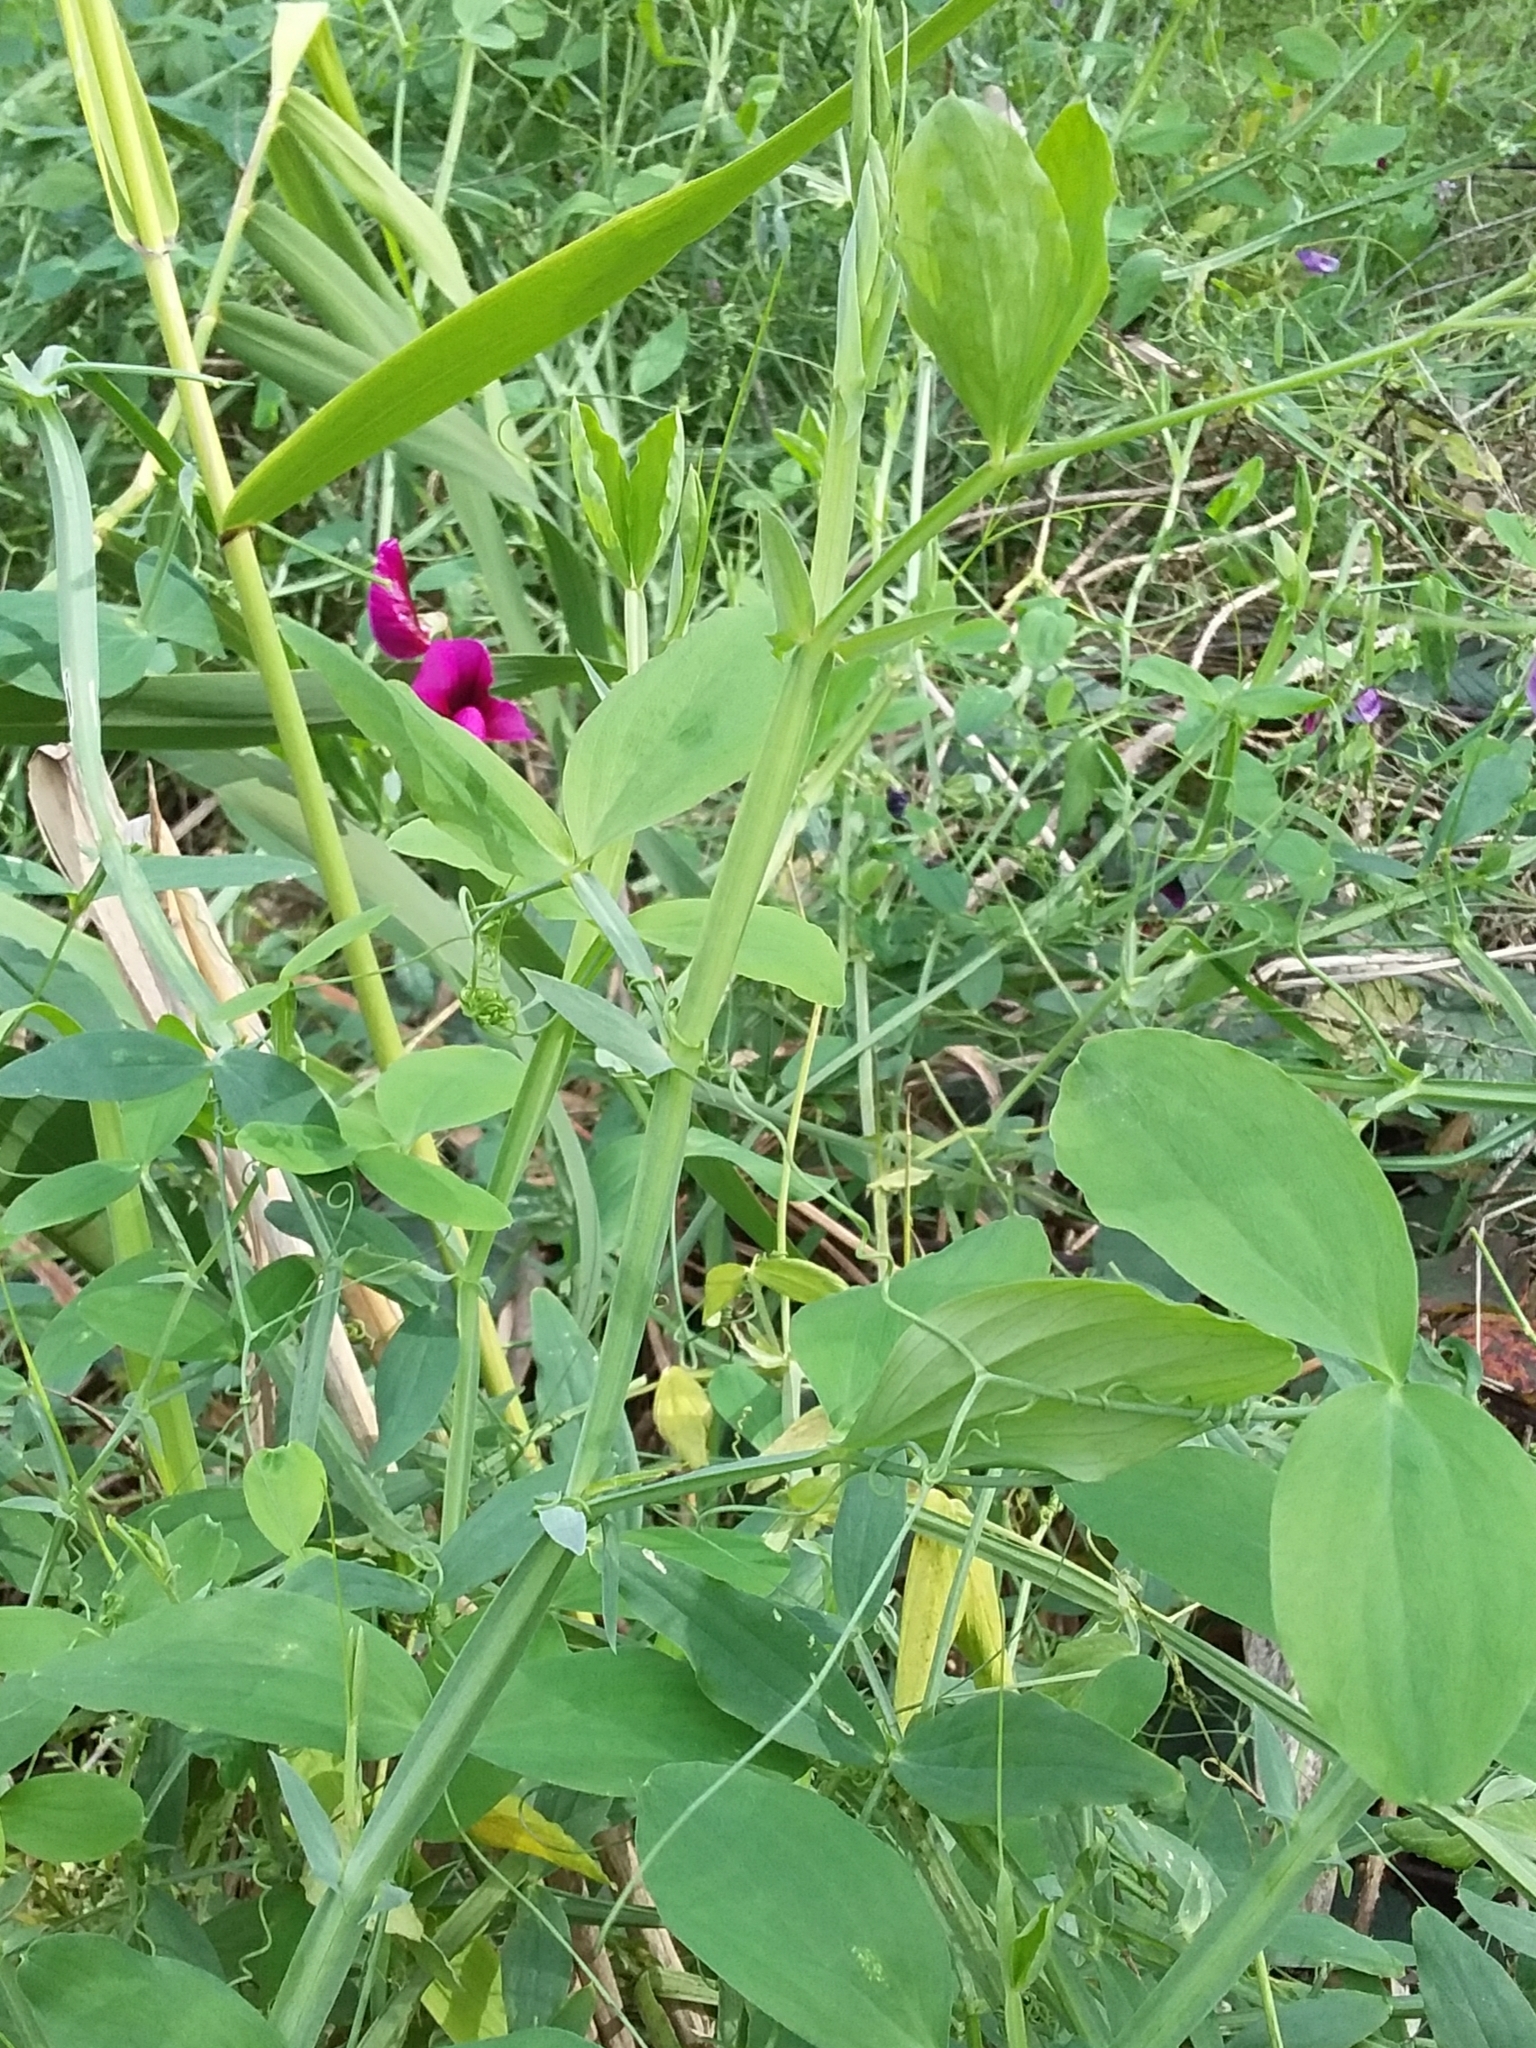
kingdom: Plantae
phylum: Tracheophyta
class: Magnoliopsida
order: Fabales
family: Fabaceae
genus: Lathyrus
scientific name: Lathyrus tingitanus
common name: Tangier pea
